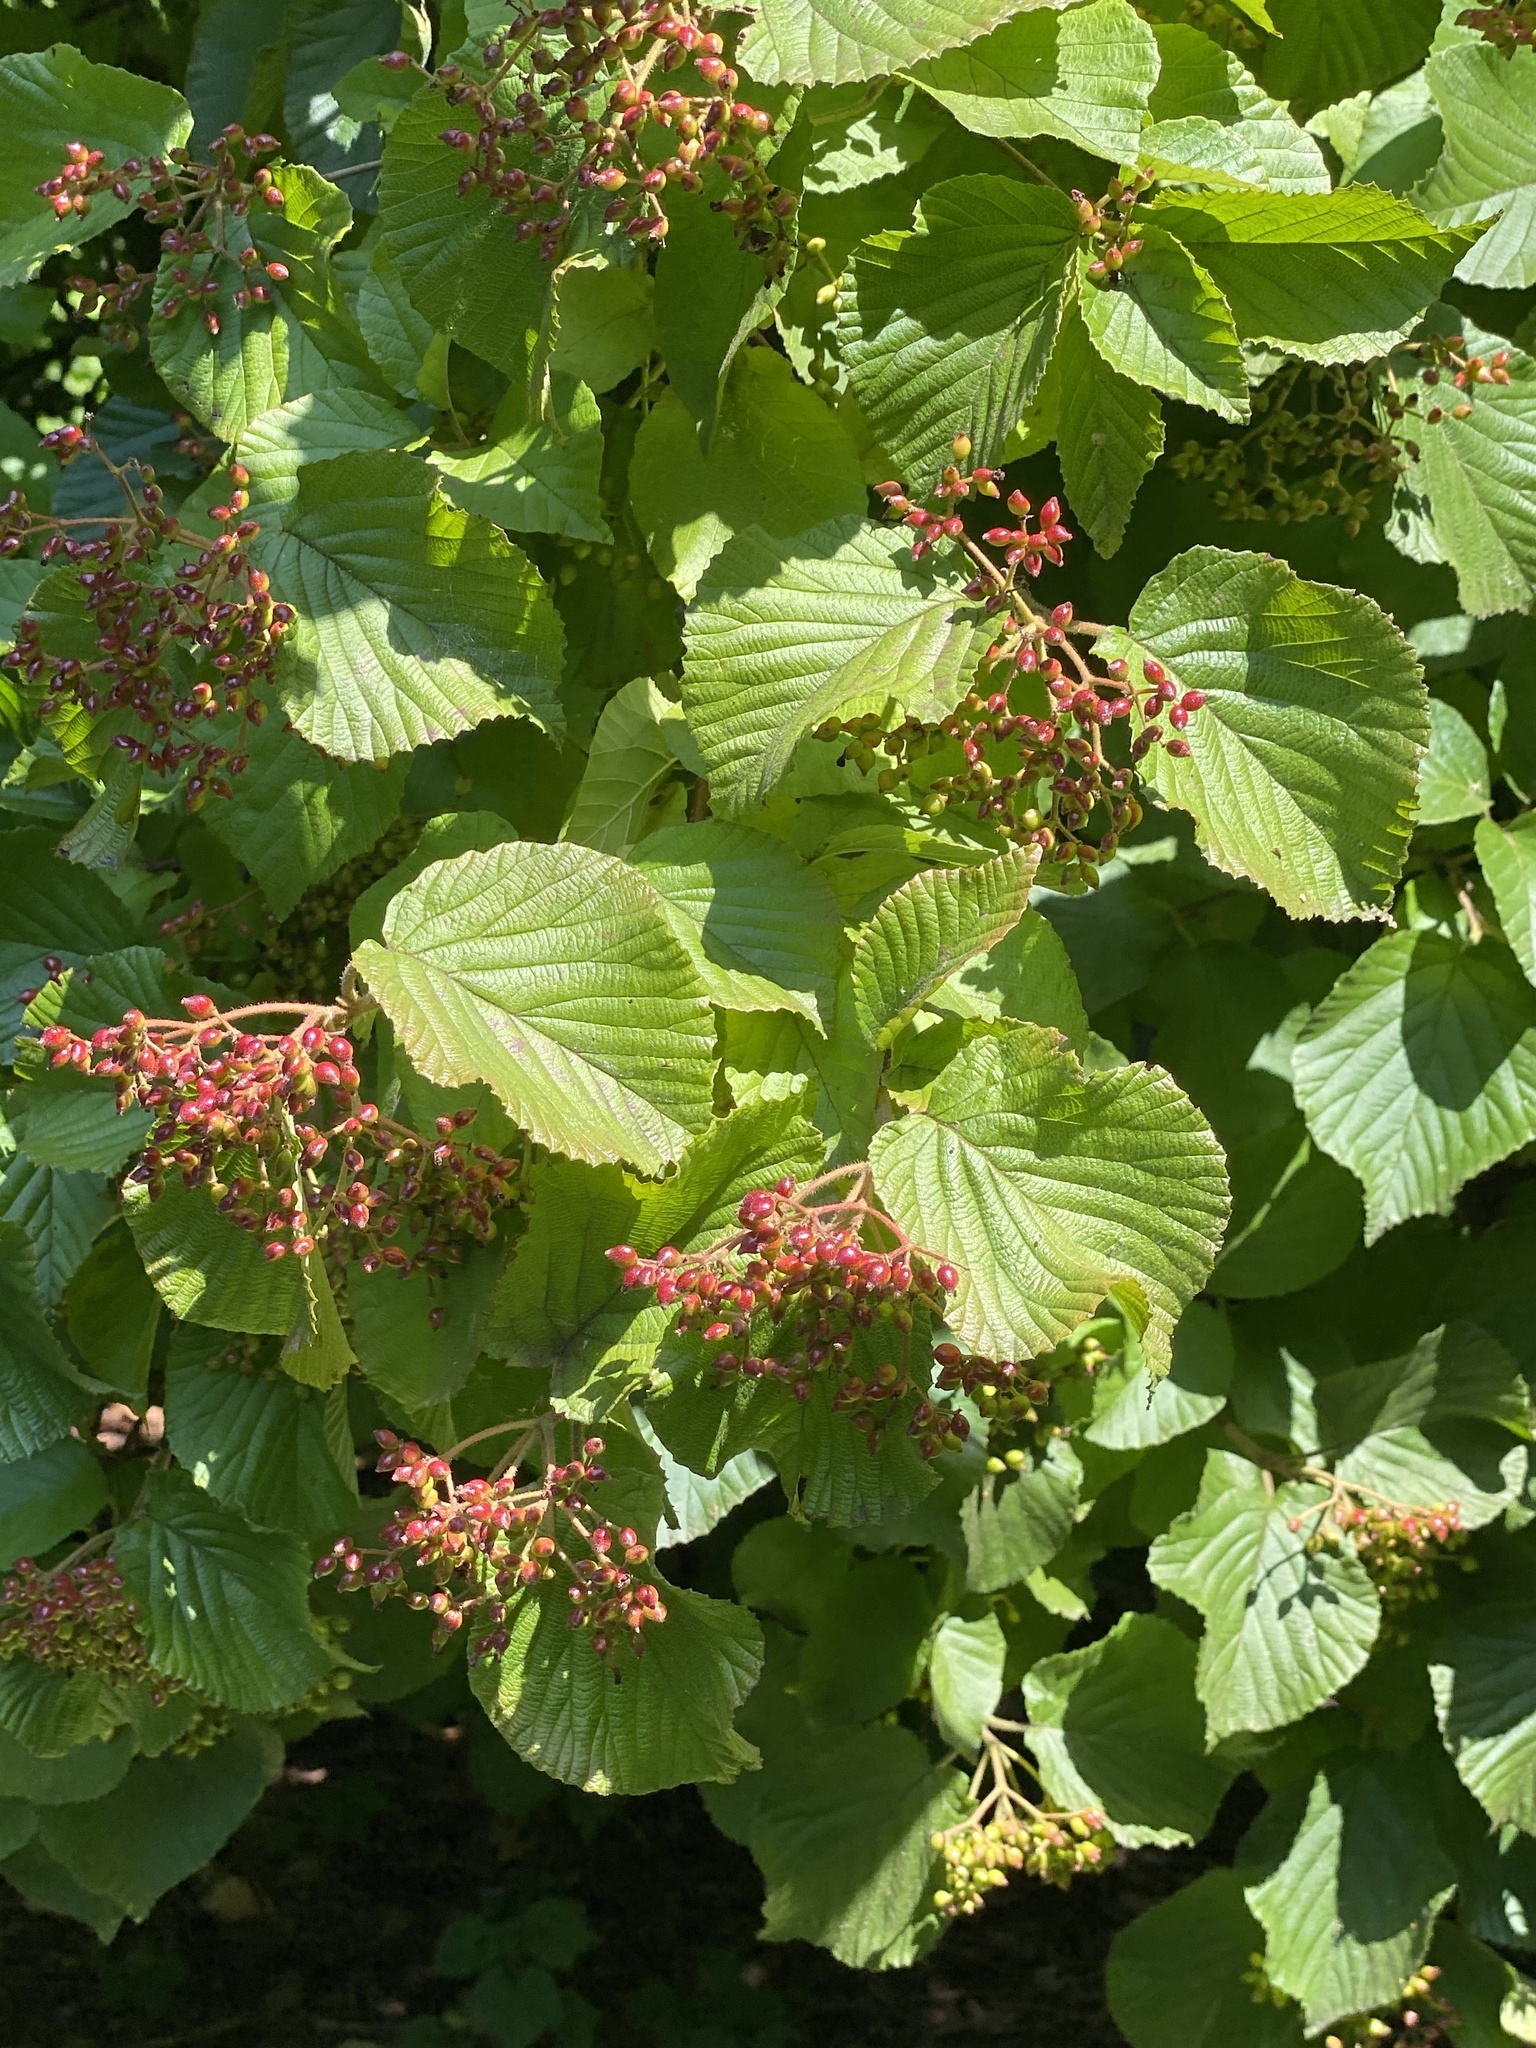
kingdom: Plantae
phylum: Tracheophyta
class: Magnoliopsida
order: Dipsacales
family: Viburnaceae
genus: Viburnum
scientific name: Viburnum dilatatum
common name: Linden arrowwood
